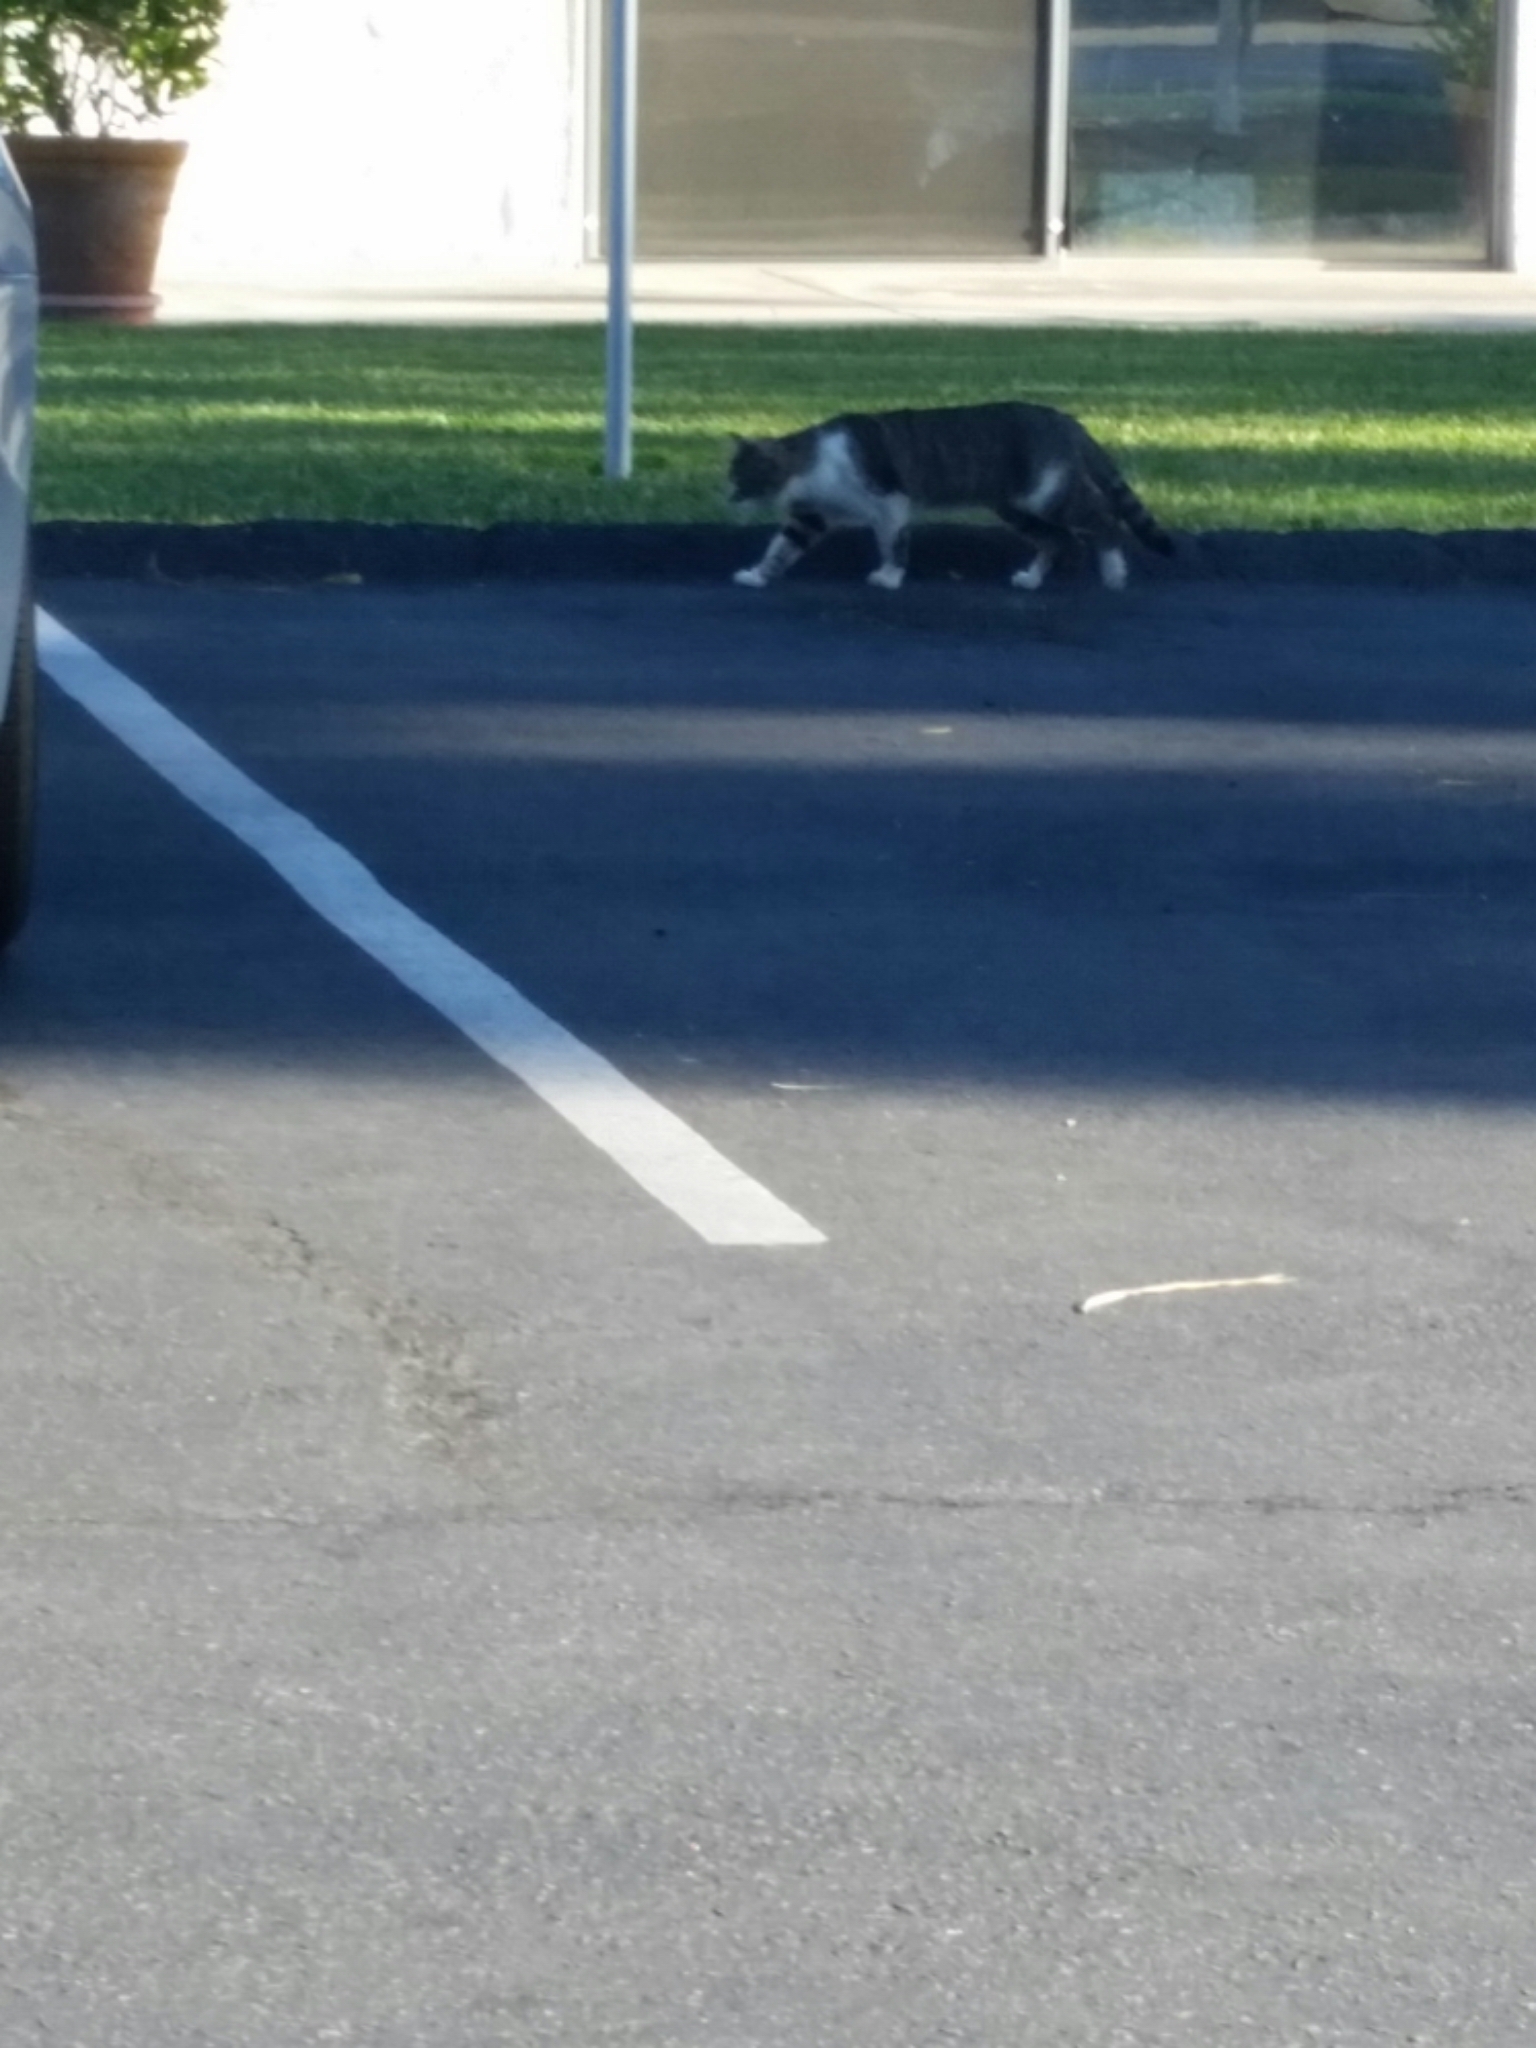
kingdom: Animalia
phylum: Chordata
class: Mammalia
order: Carnivora
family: Felidae
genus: Felis
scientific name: Felis catus
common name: Domestic cat
